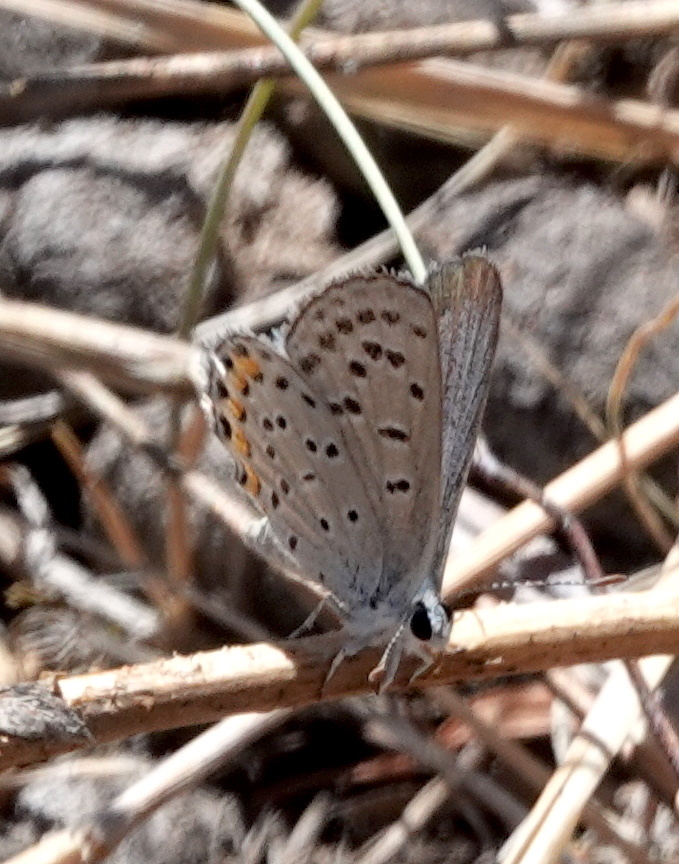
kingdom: Animalia
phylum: Arthropoda
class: Insecta
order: Lepidoptera
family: Lycaenidae
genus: Icaricia
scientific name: Icaricia lupini
